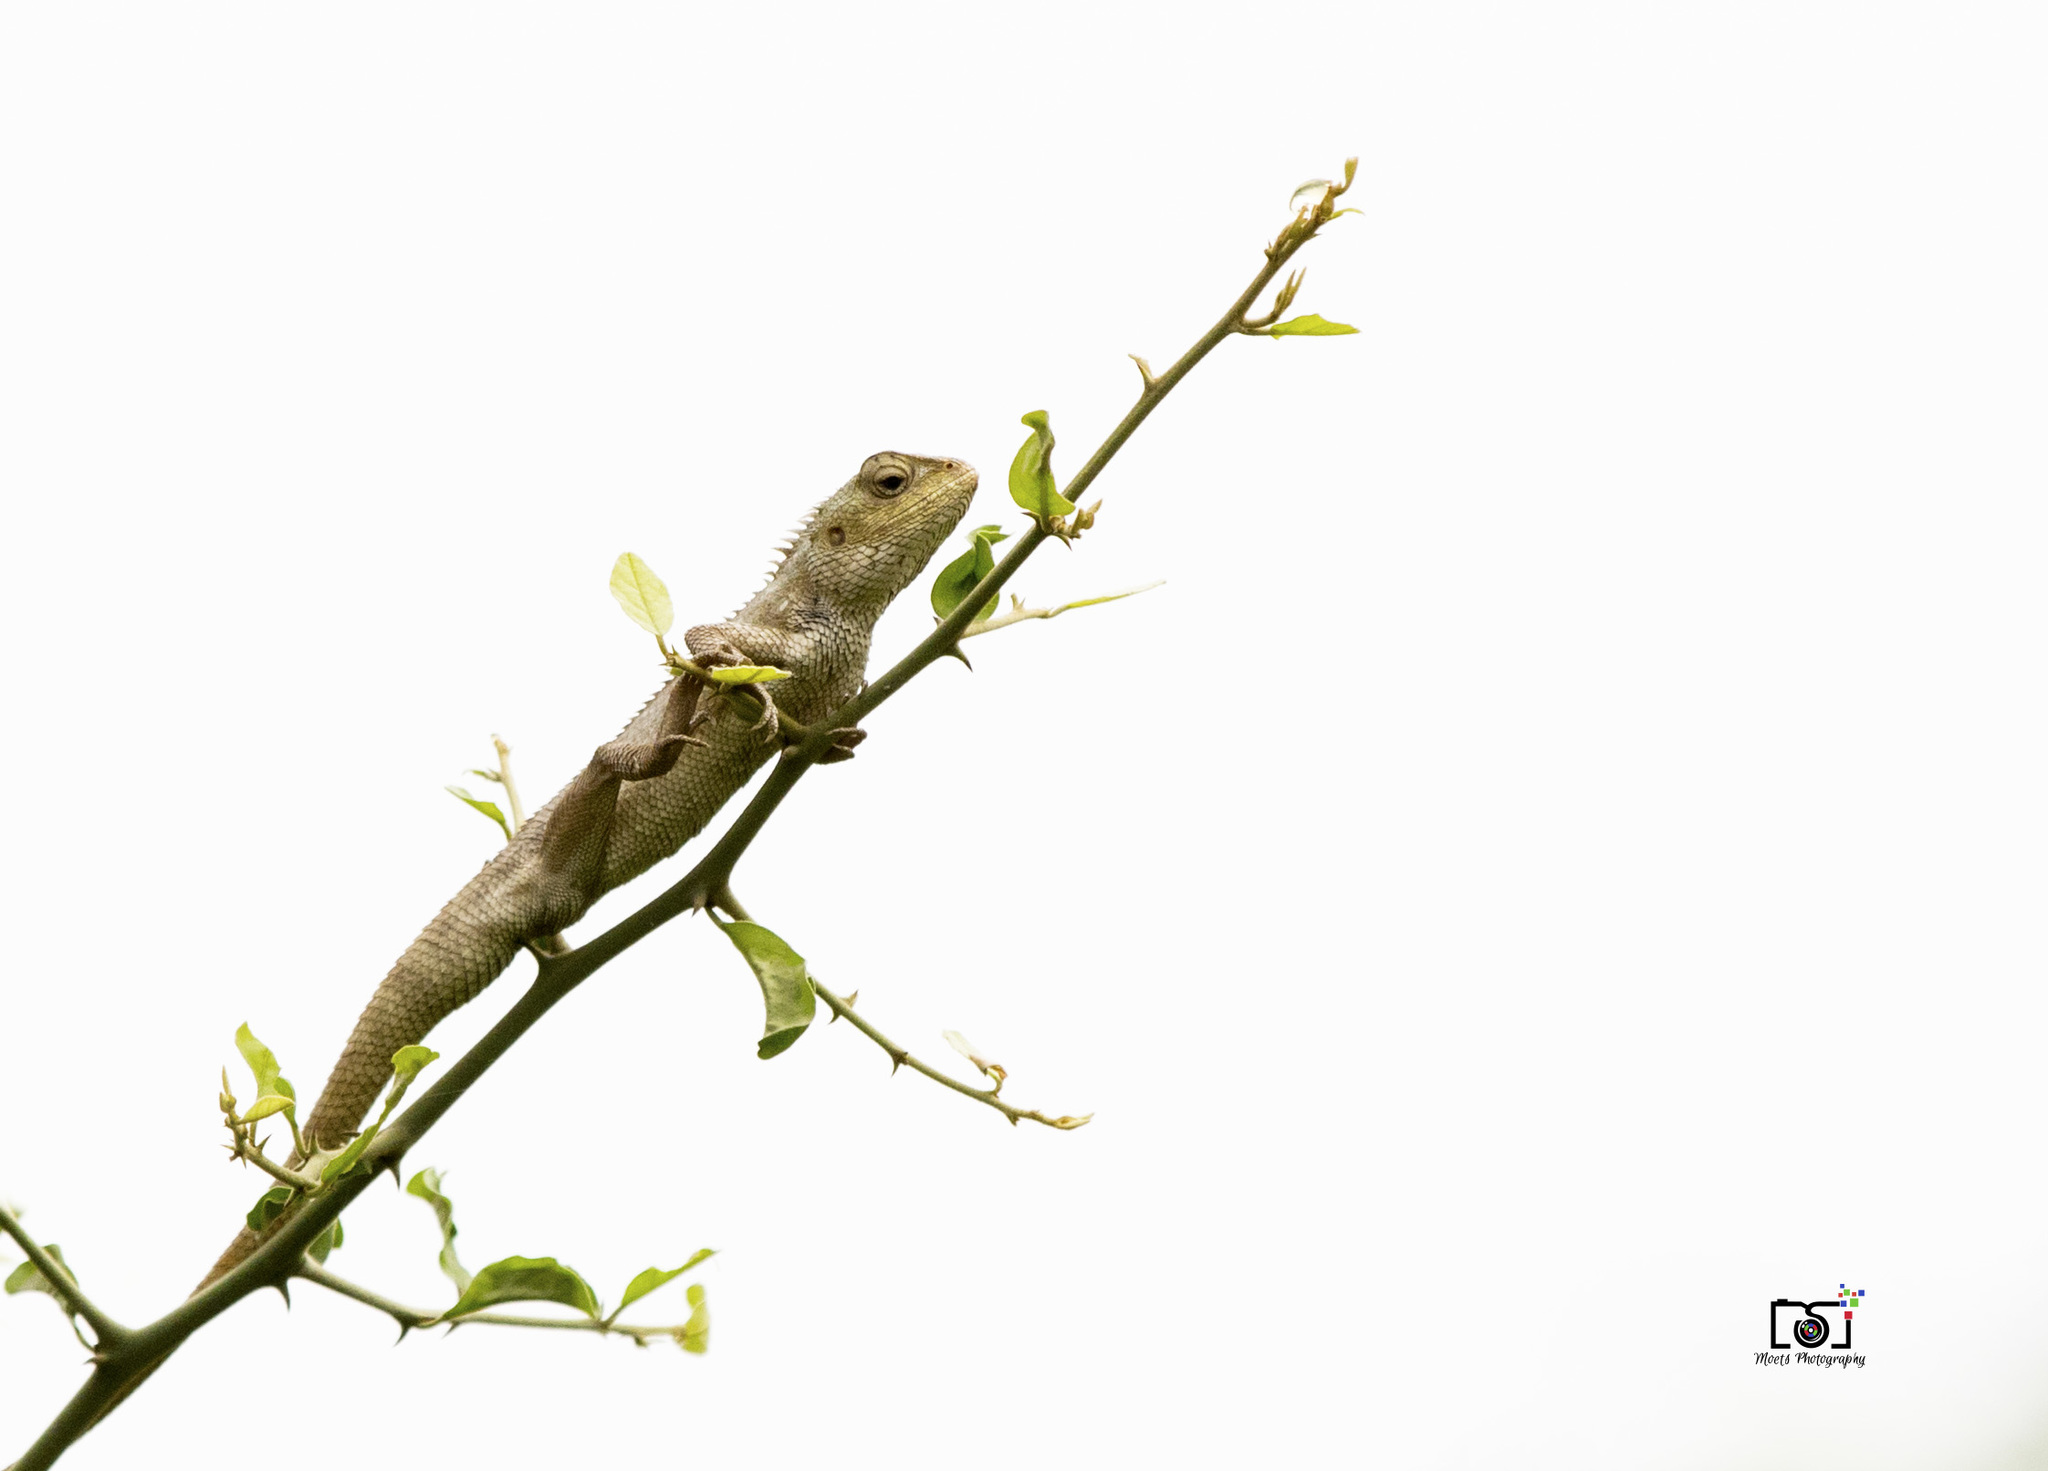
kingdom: Animalia
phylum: Chordata
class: Squamata
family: Agamidae
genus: Calotes
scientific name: Calotes versicolor
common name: Oriental garden lizard
